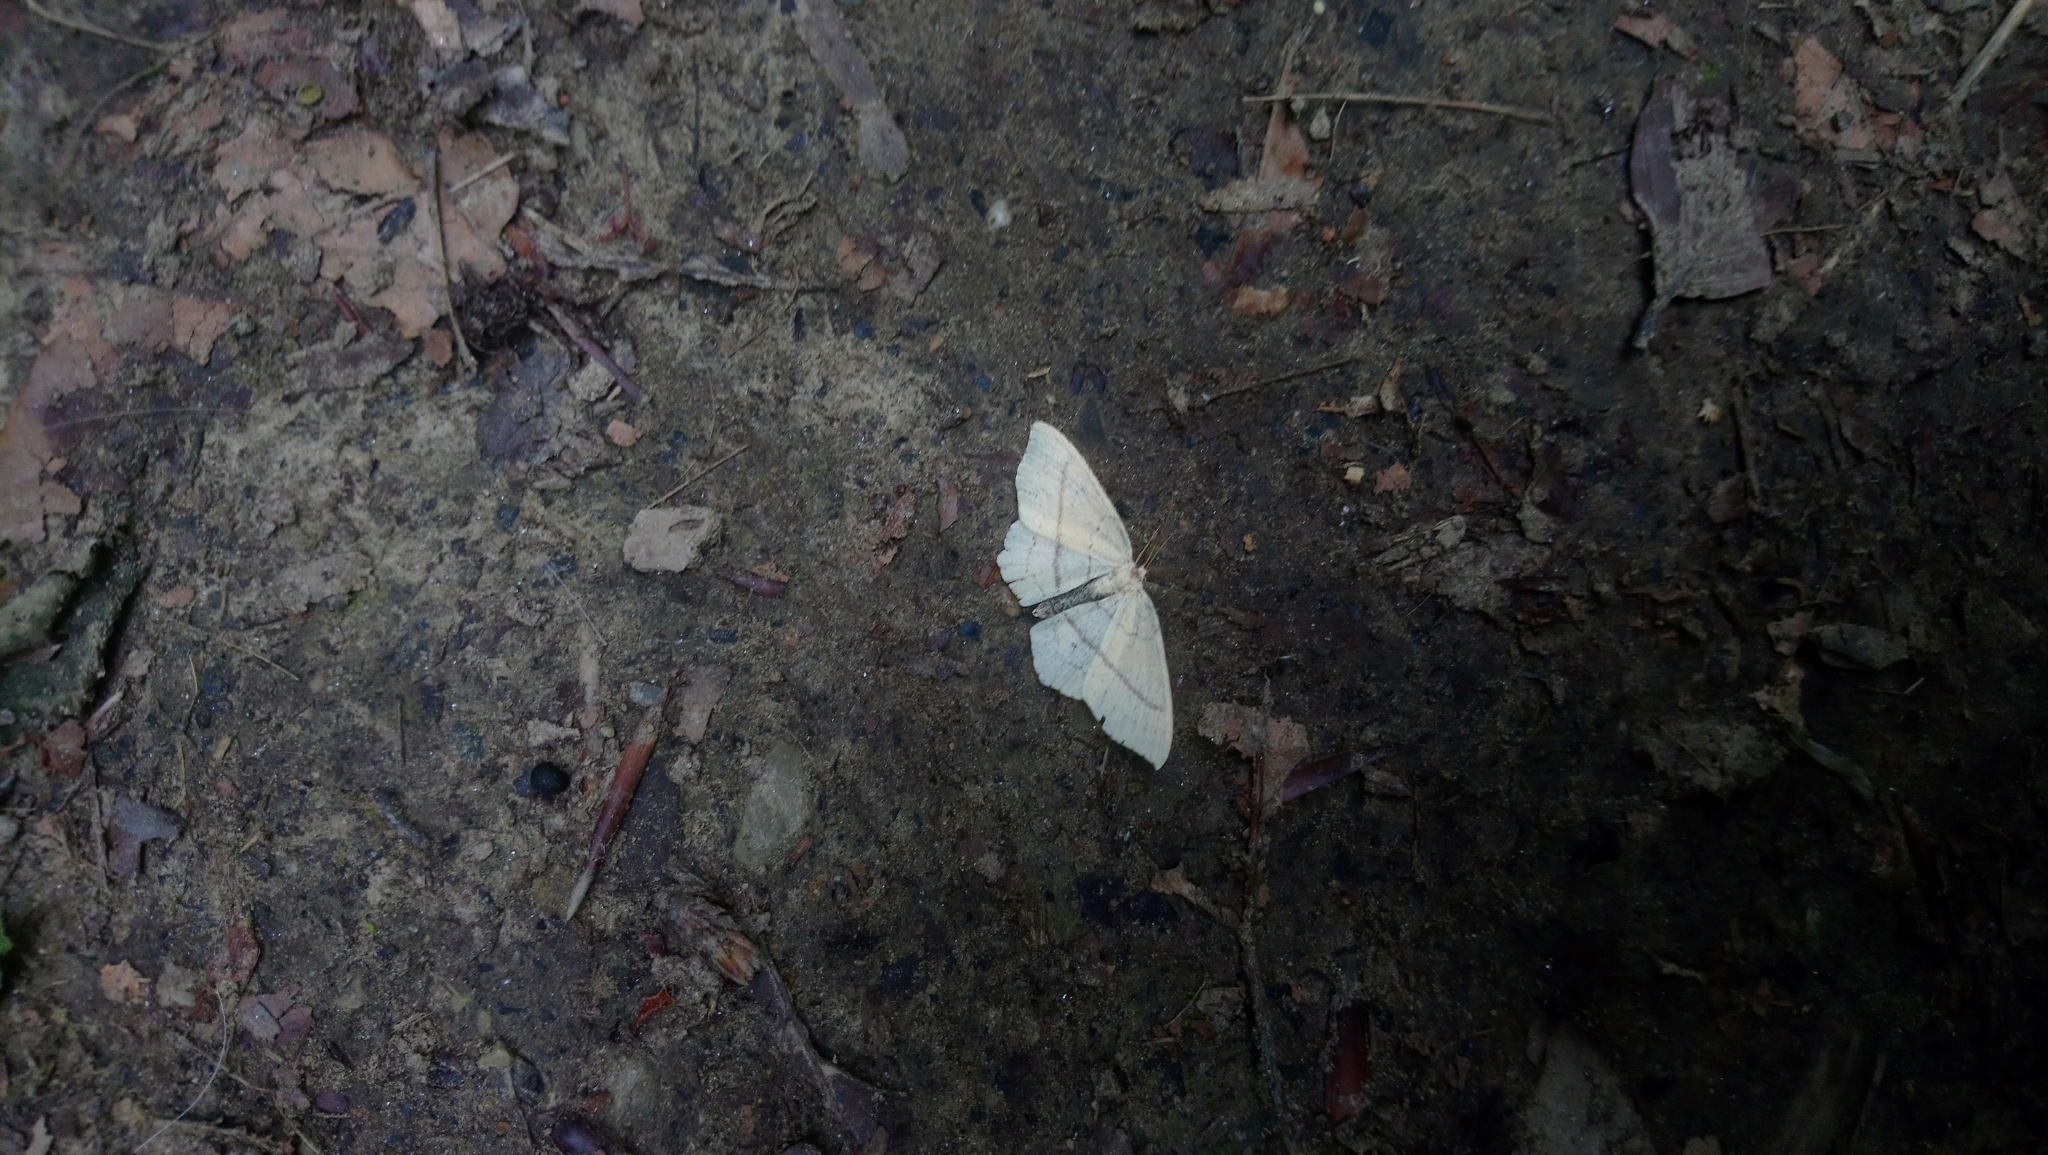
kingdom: Animalia
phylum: Arthropoda
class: Insecta
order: Lepidoptera
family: Geometridae
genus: Cyclophora
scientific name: Cyclophora linearia
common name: Clay triple-lines
